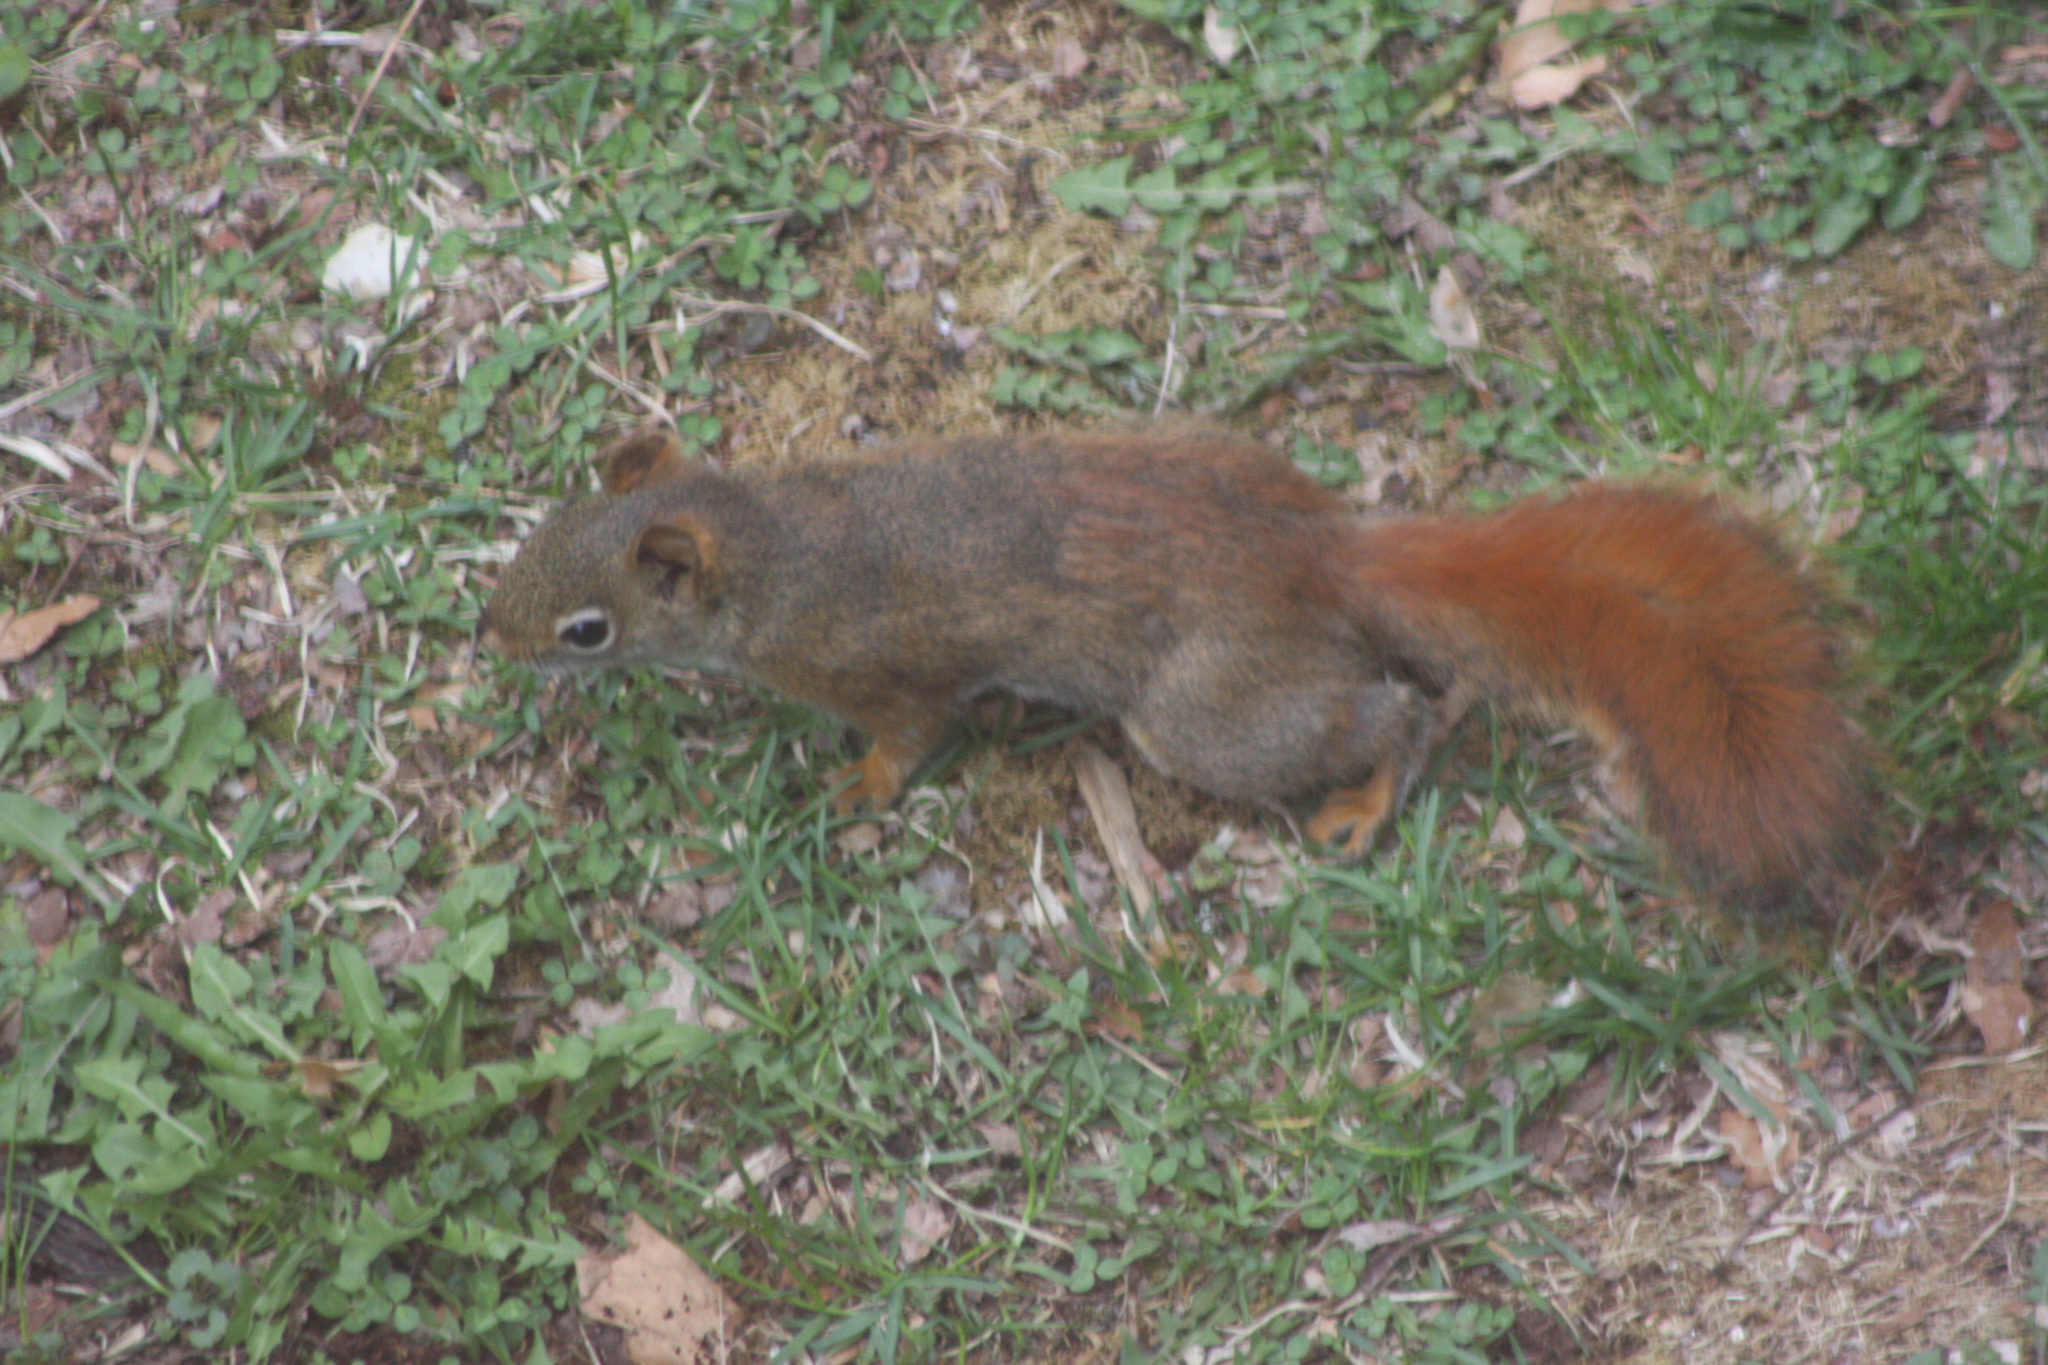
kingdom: Animalia
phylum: Chordata
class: Mammalia
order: Rodentia
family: Sciuridae
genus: Tamiasciurus
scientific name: Tamiasciurus hudsonicus
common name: Red squirrel
